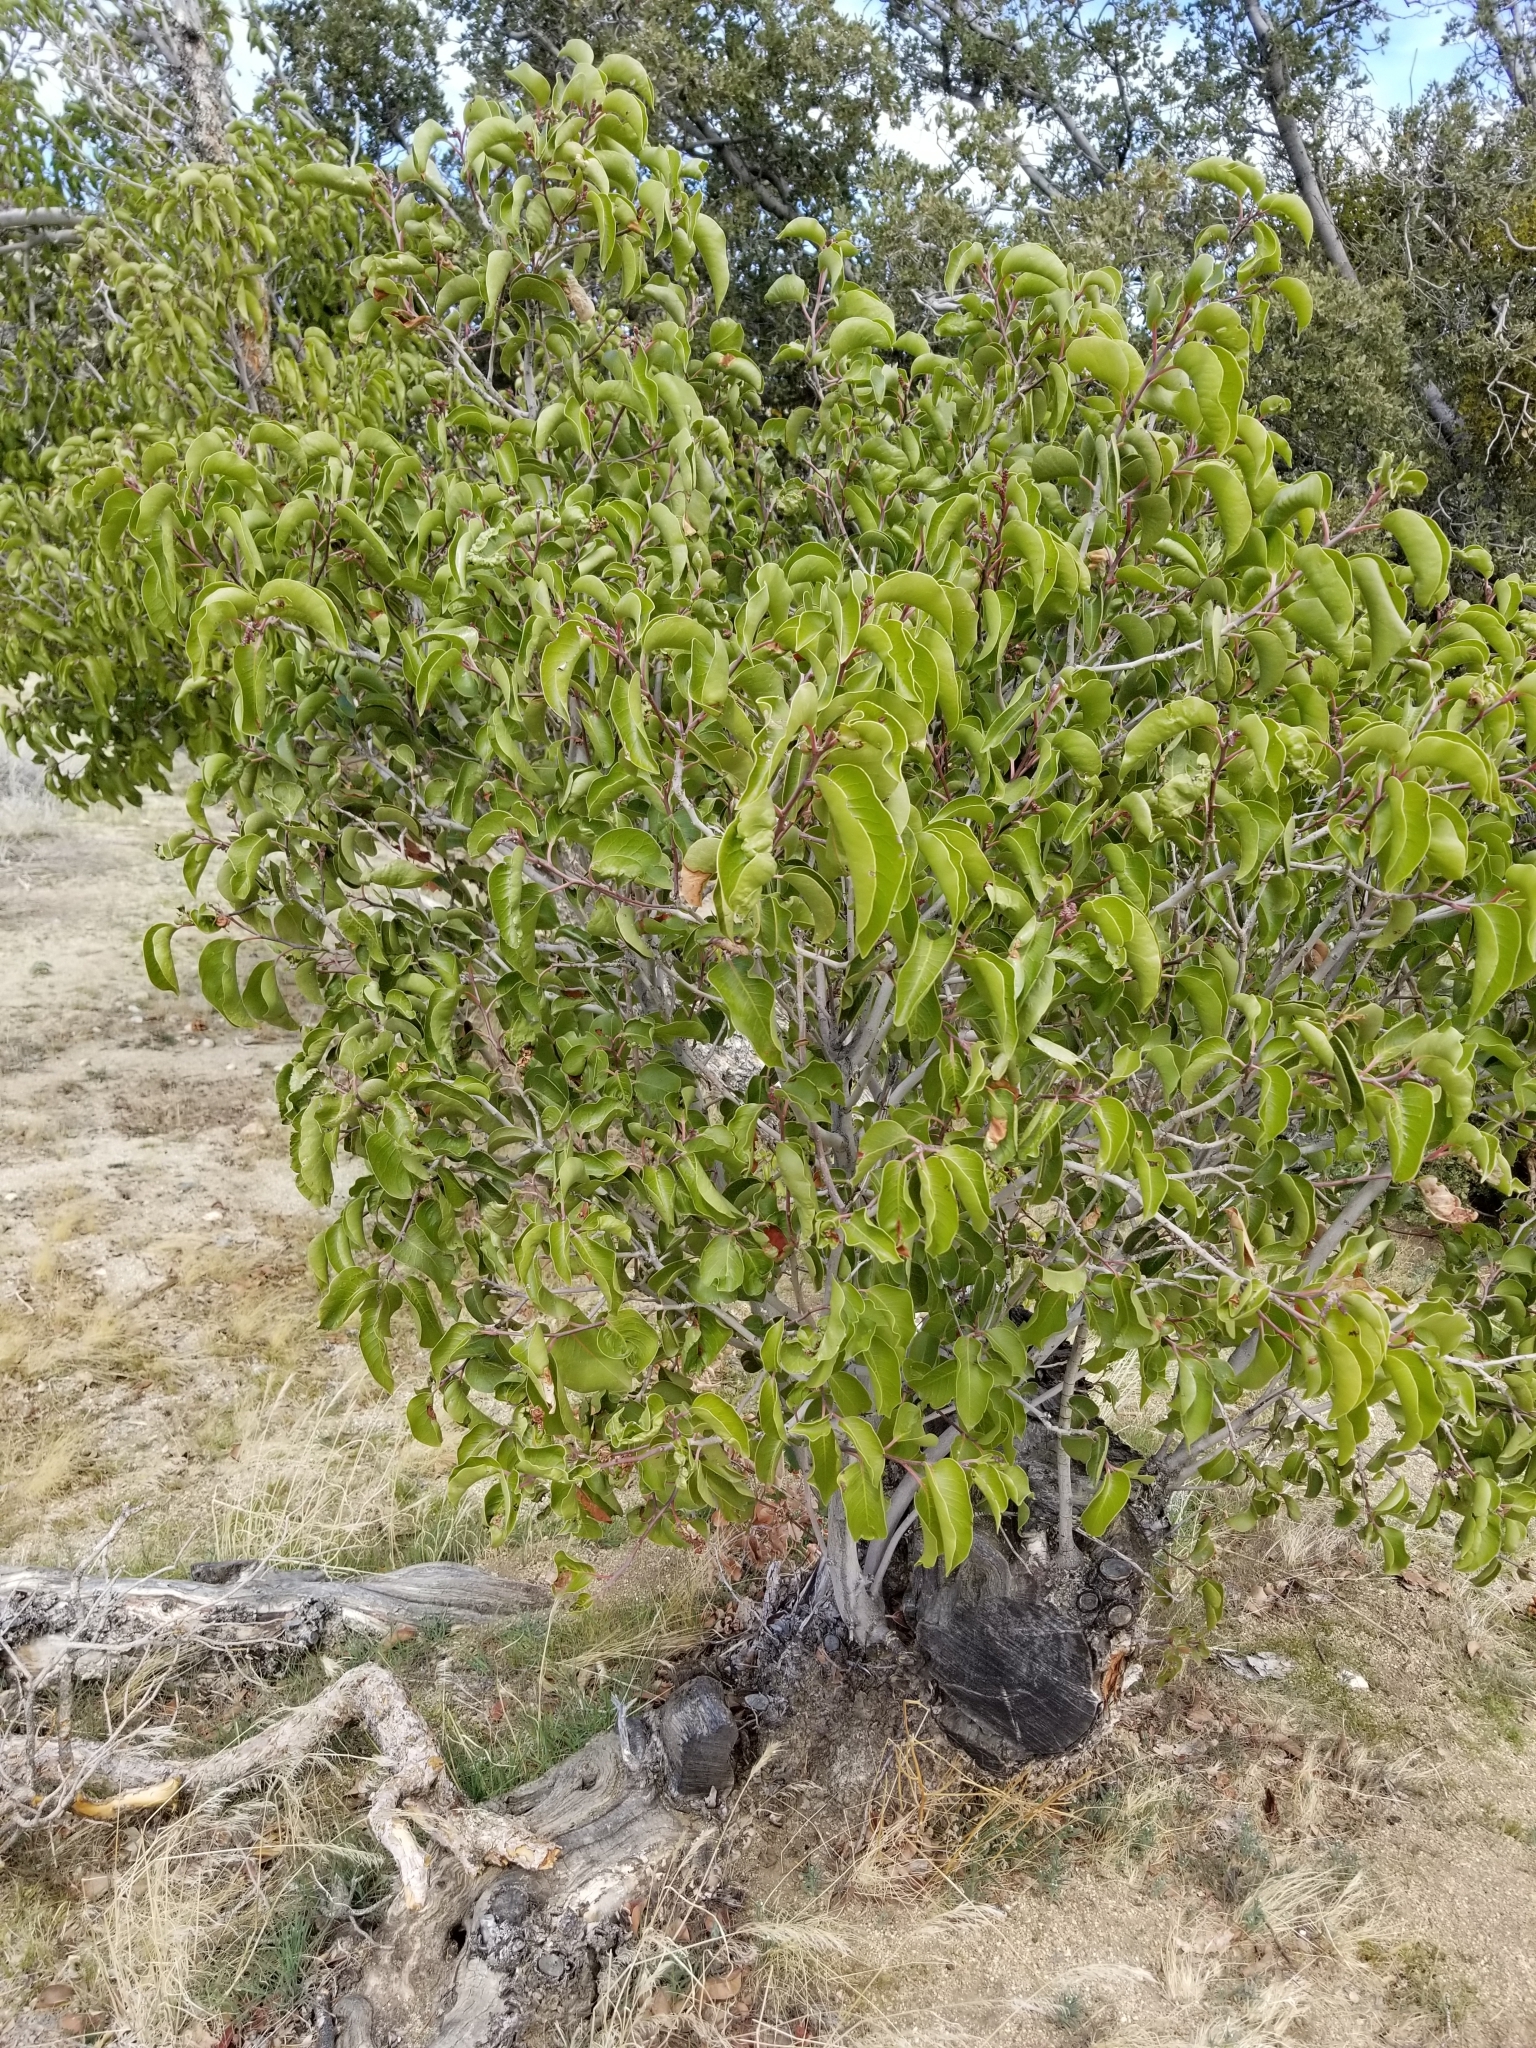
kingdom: Plantae
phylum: Tracheophyta
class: Magnoliopsida
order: Sapindales
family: Anacardiaceae
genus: Rhus
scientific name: Rhus ovata
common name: Sugar sumac
